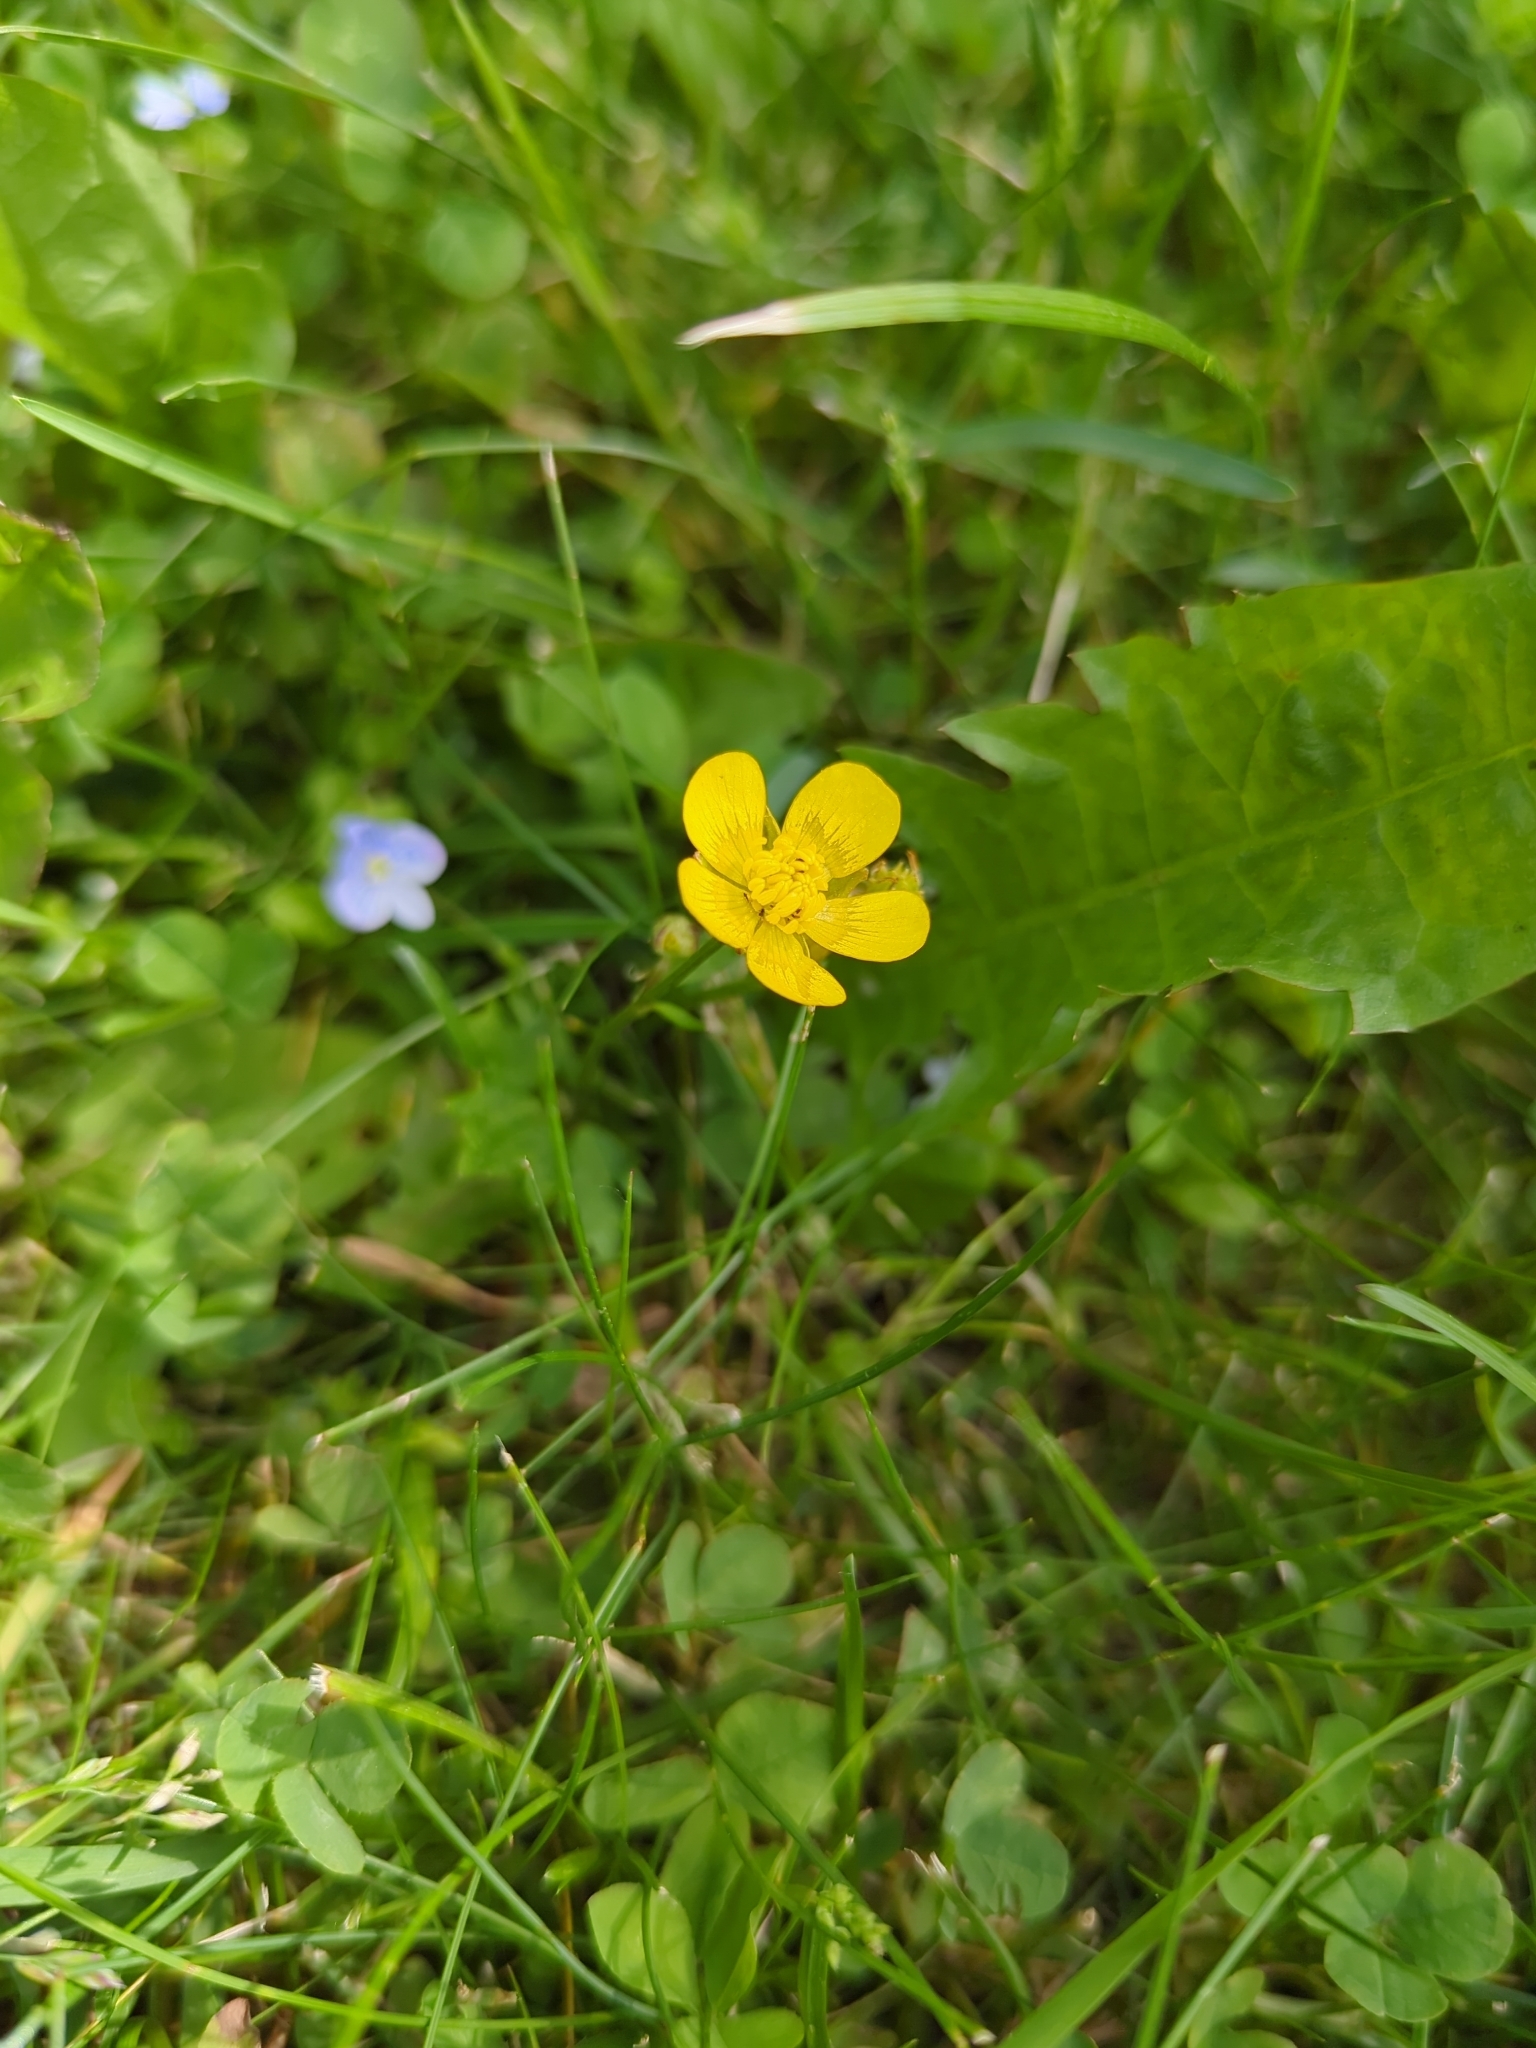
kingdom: Plantae
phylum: Tracheophyta
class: Magnoliopsida
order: Ranunculales
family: Ranunculaceae
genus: Ranunculus
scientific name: Ranunculus repens
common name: Creeping buttercup
